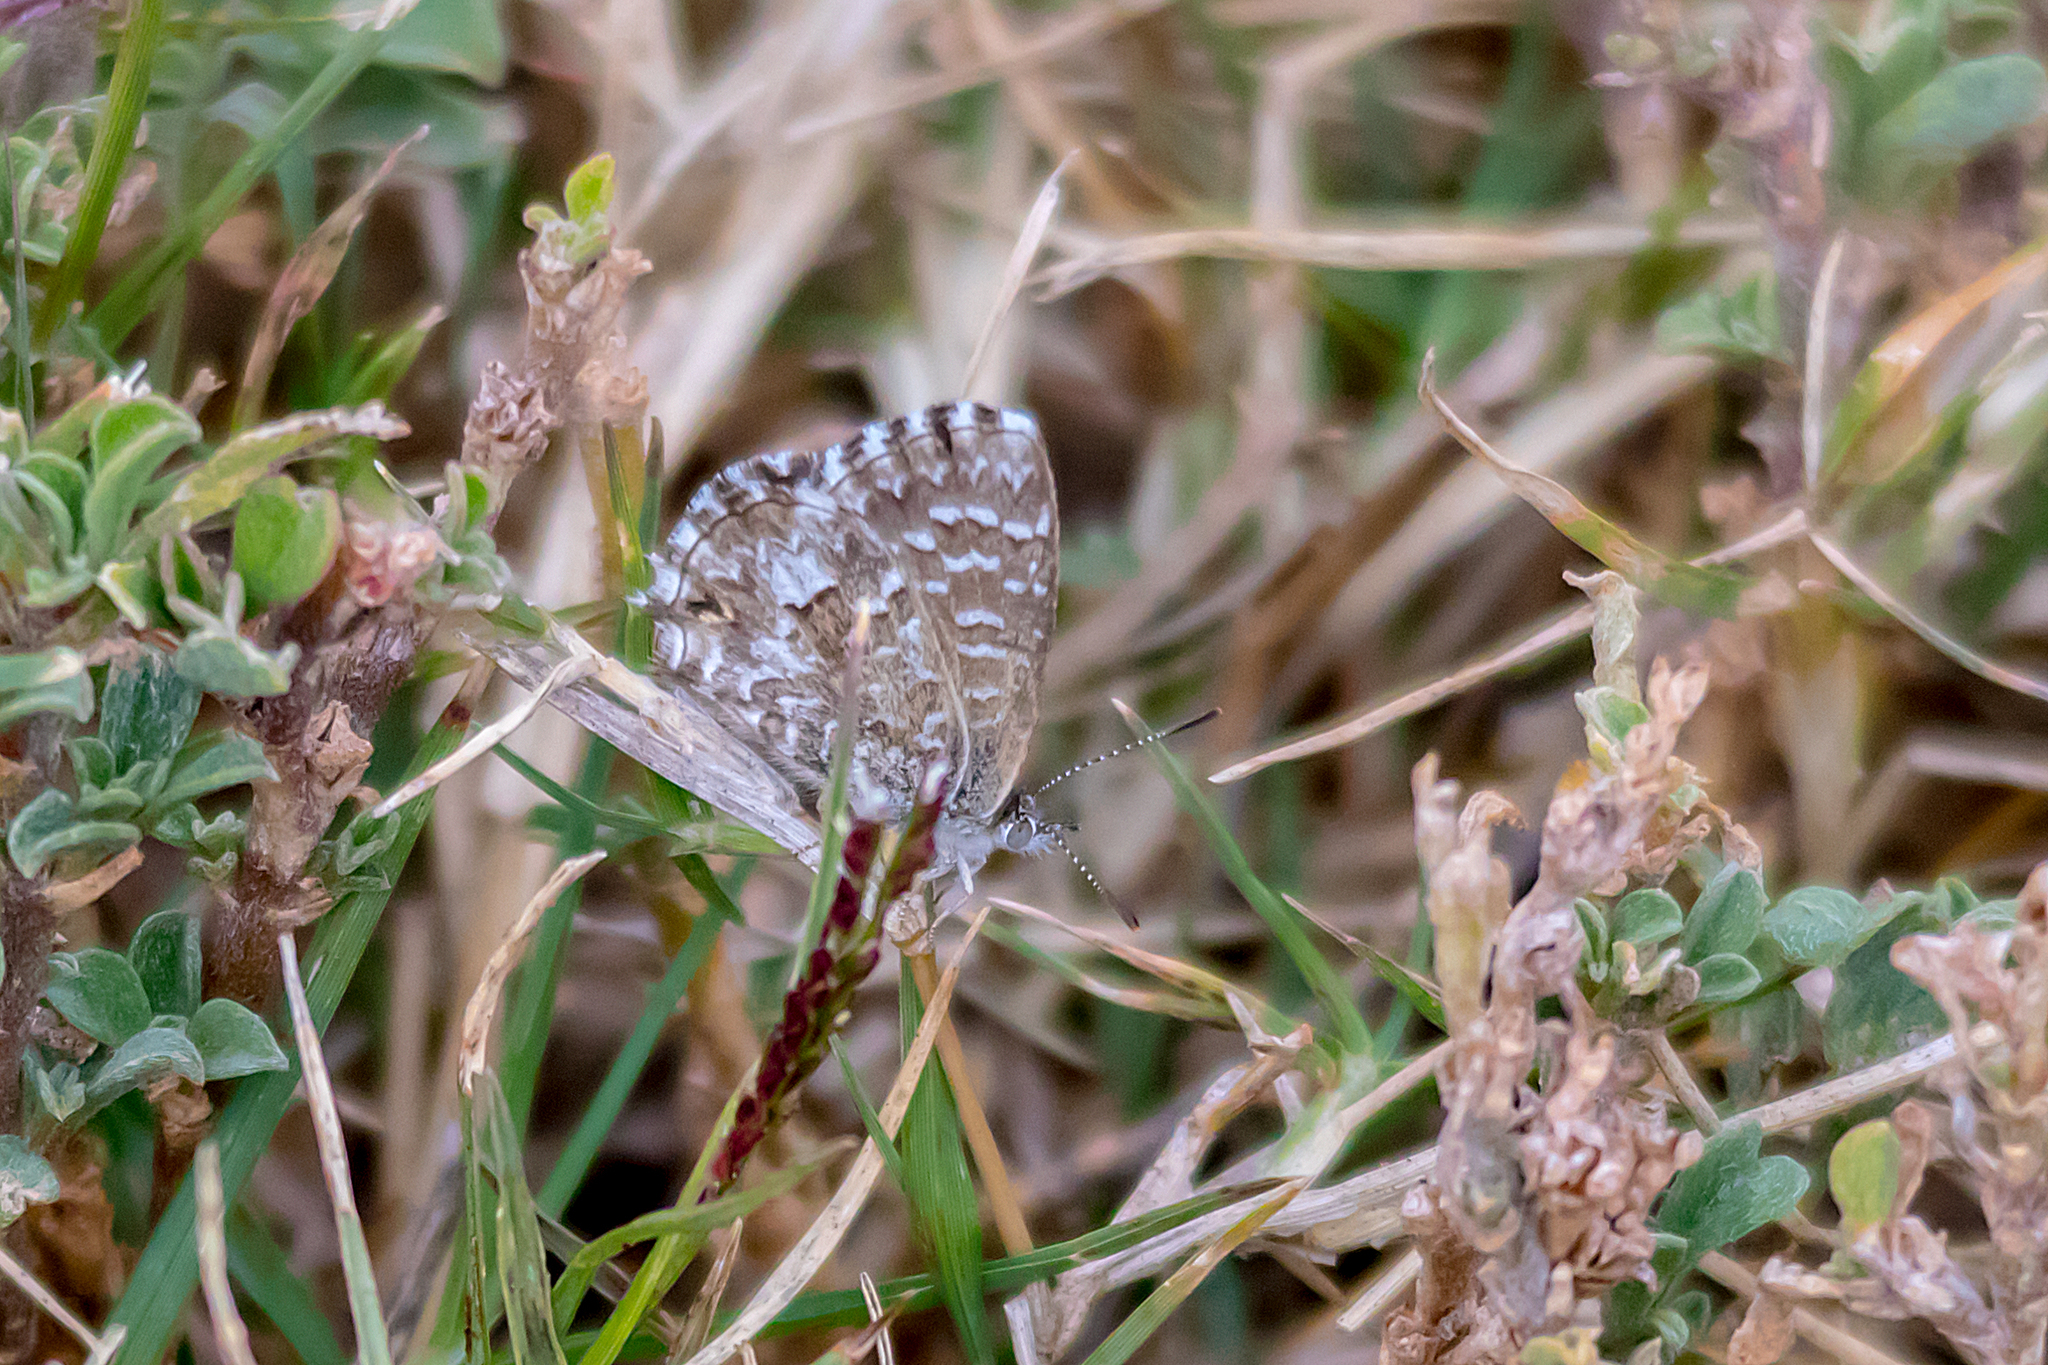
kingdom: Animalia
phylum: Arthropoda
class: Insecta
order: Lepidoptera
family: Lycaenidae
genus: Theclinesthes
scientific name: Theclinesthes serpentata
